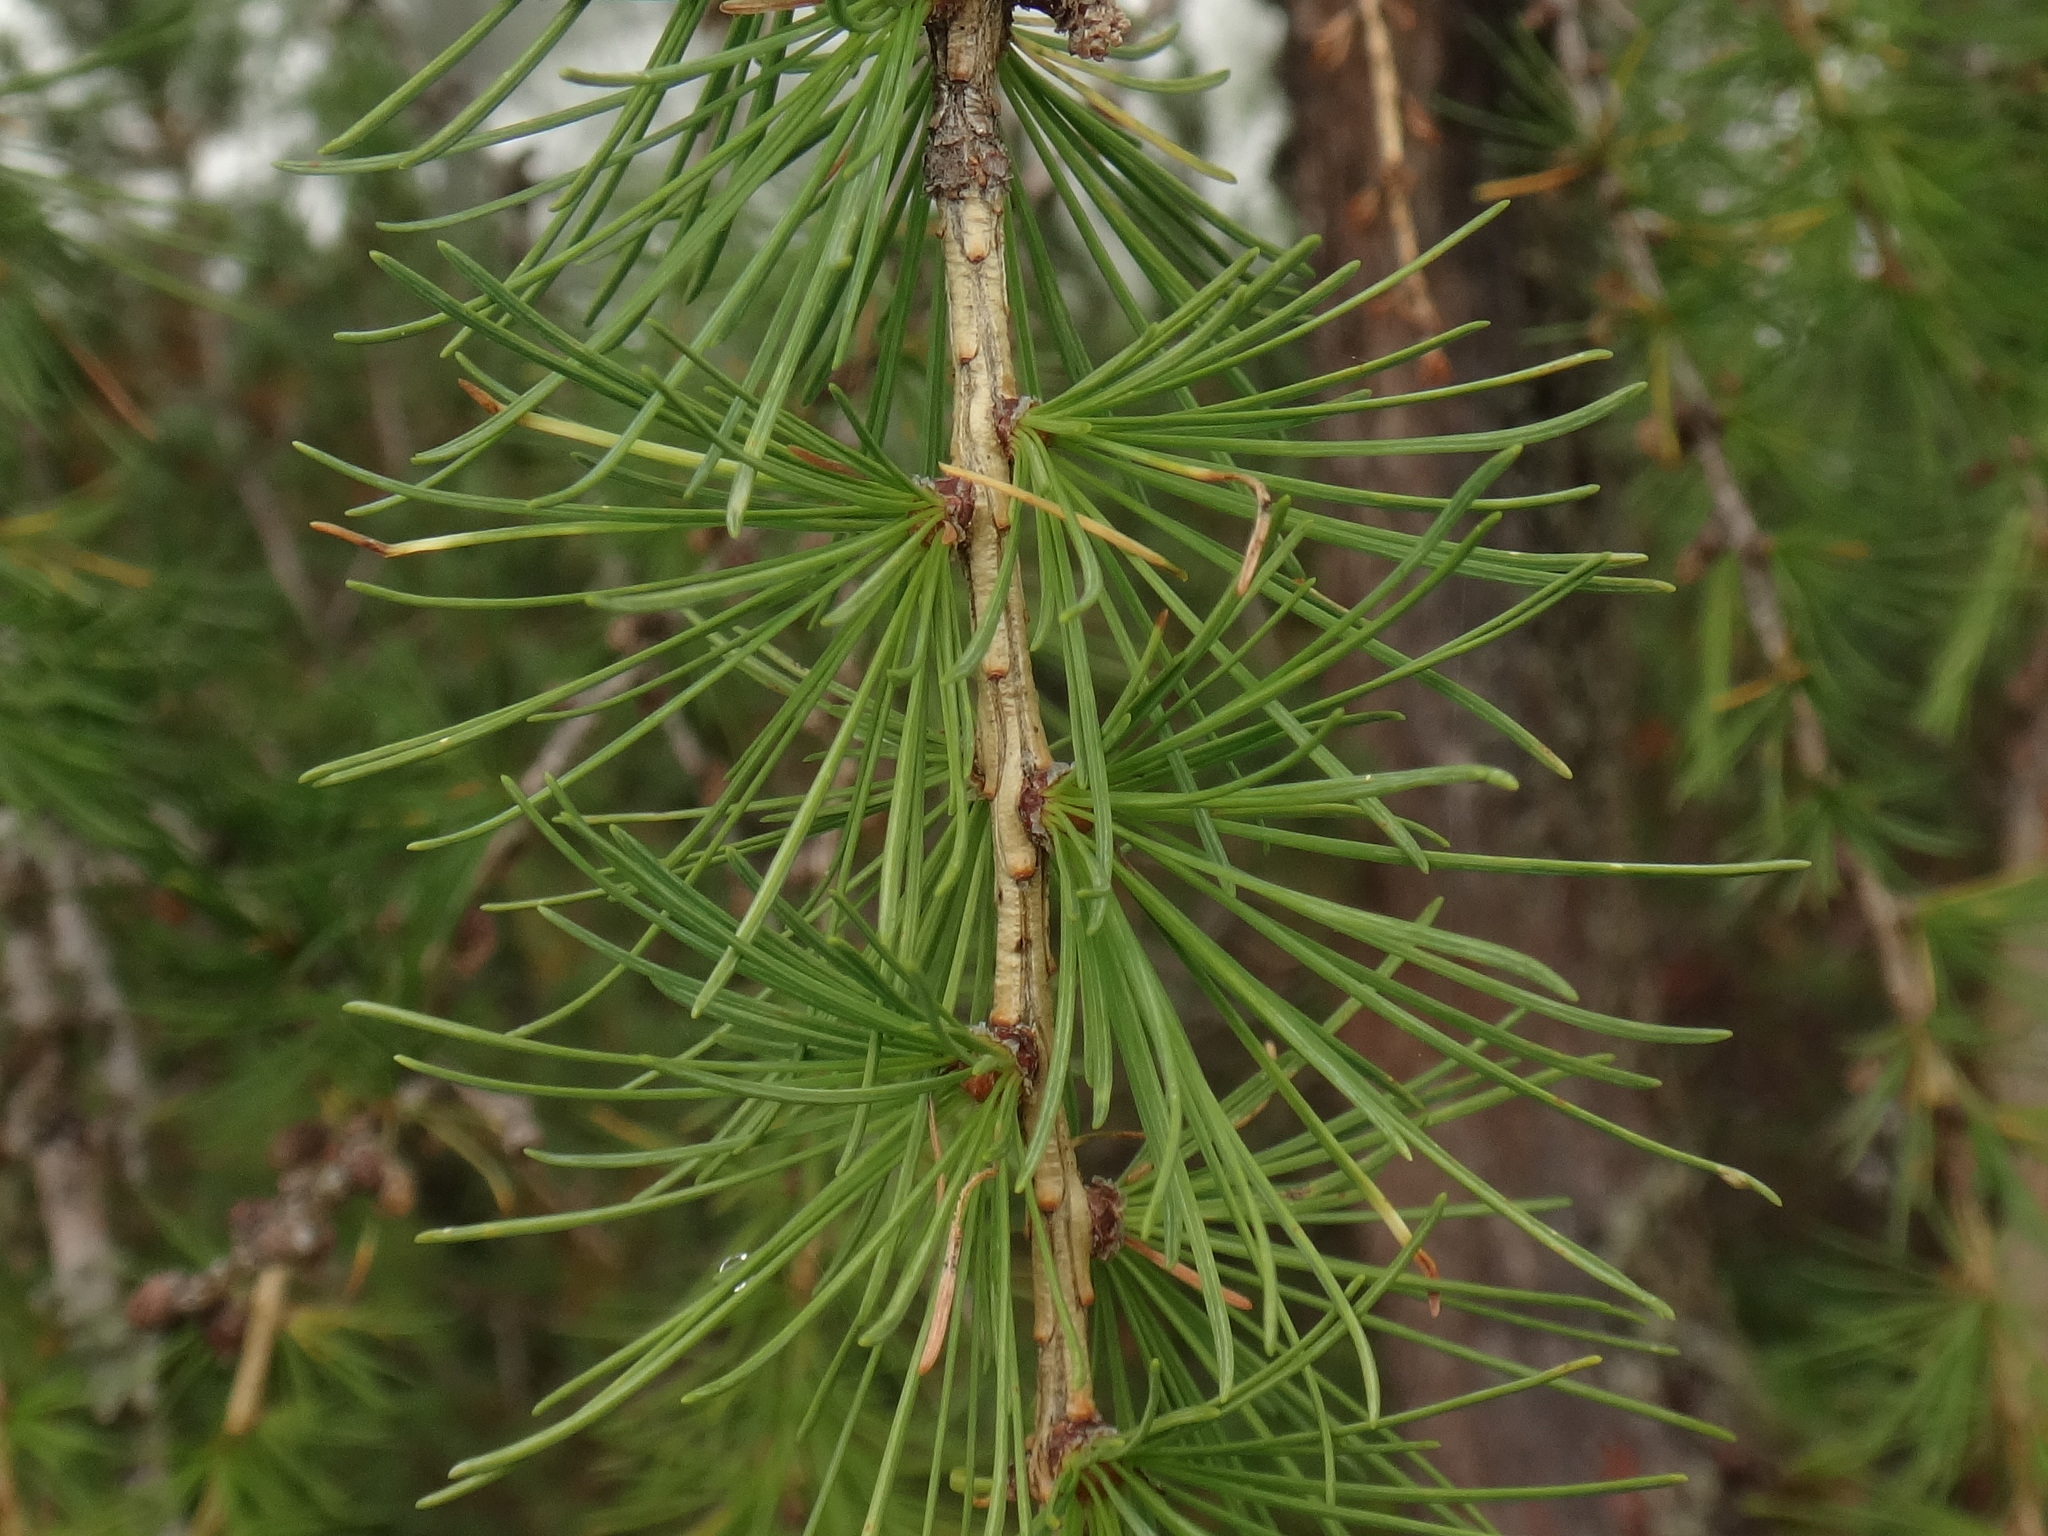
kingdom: Plantae
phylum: Tracheophyta
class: Pinopsida
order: Pinales
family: Pinaceae
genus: Larix
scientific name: Larix decidua
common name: European larch
